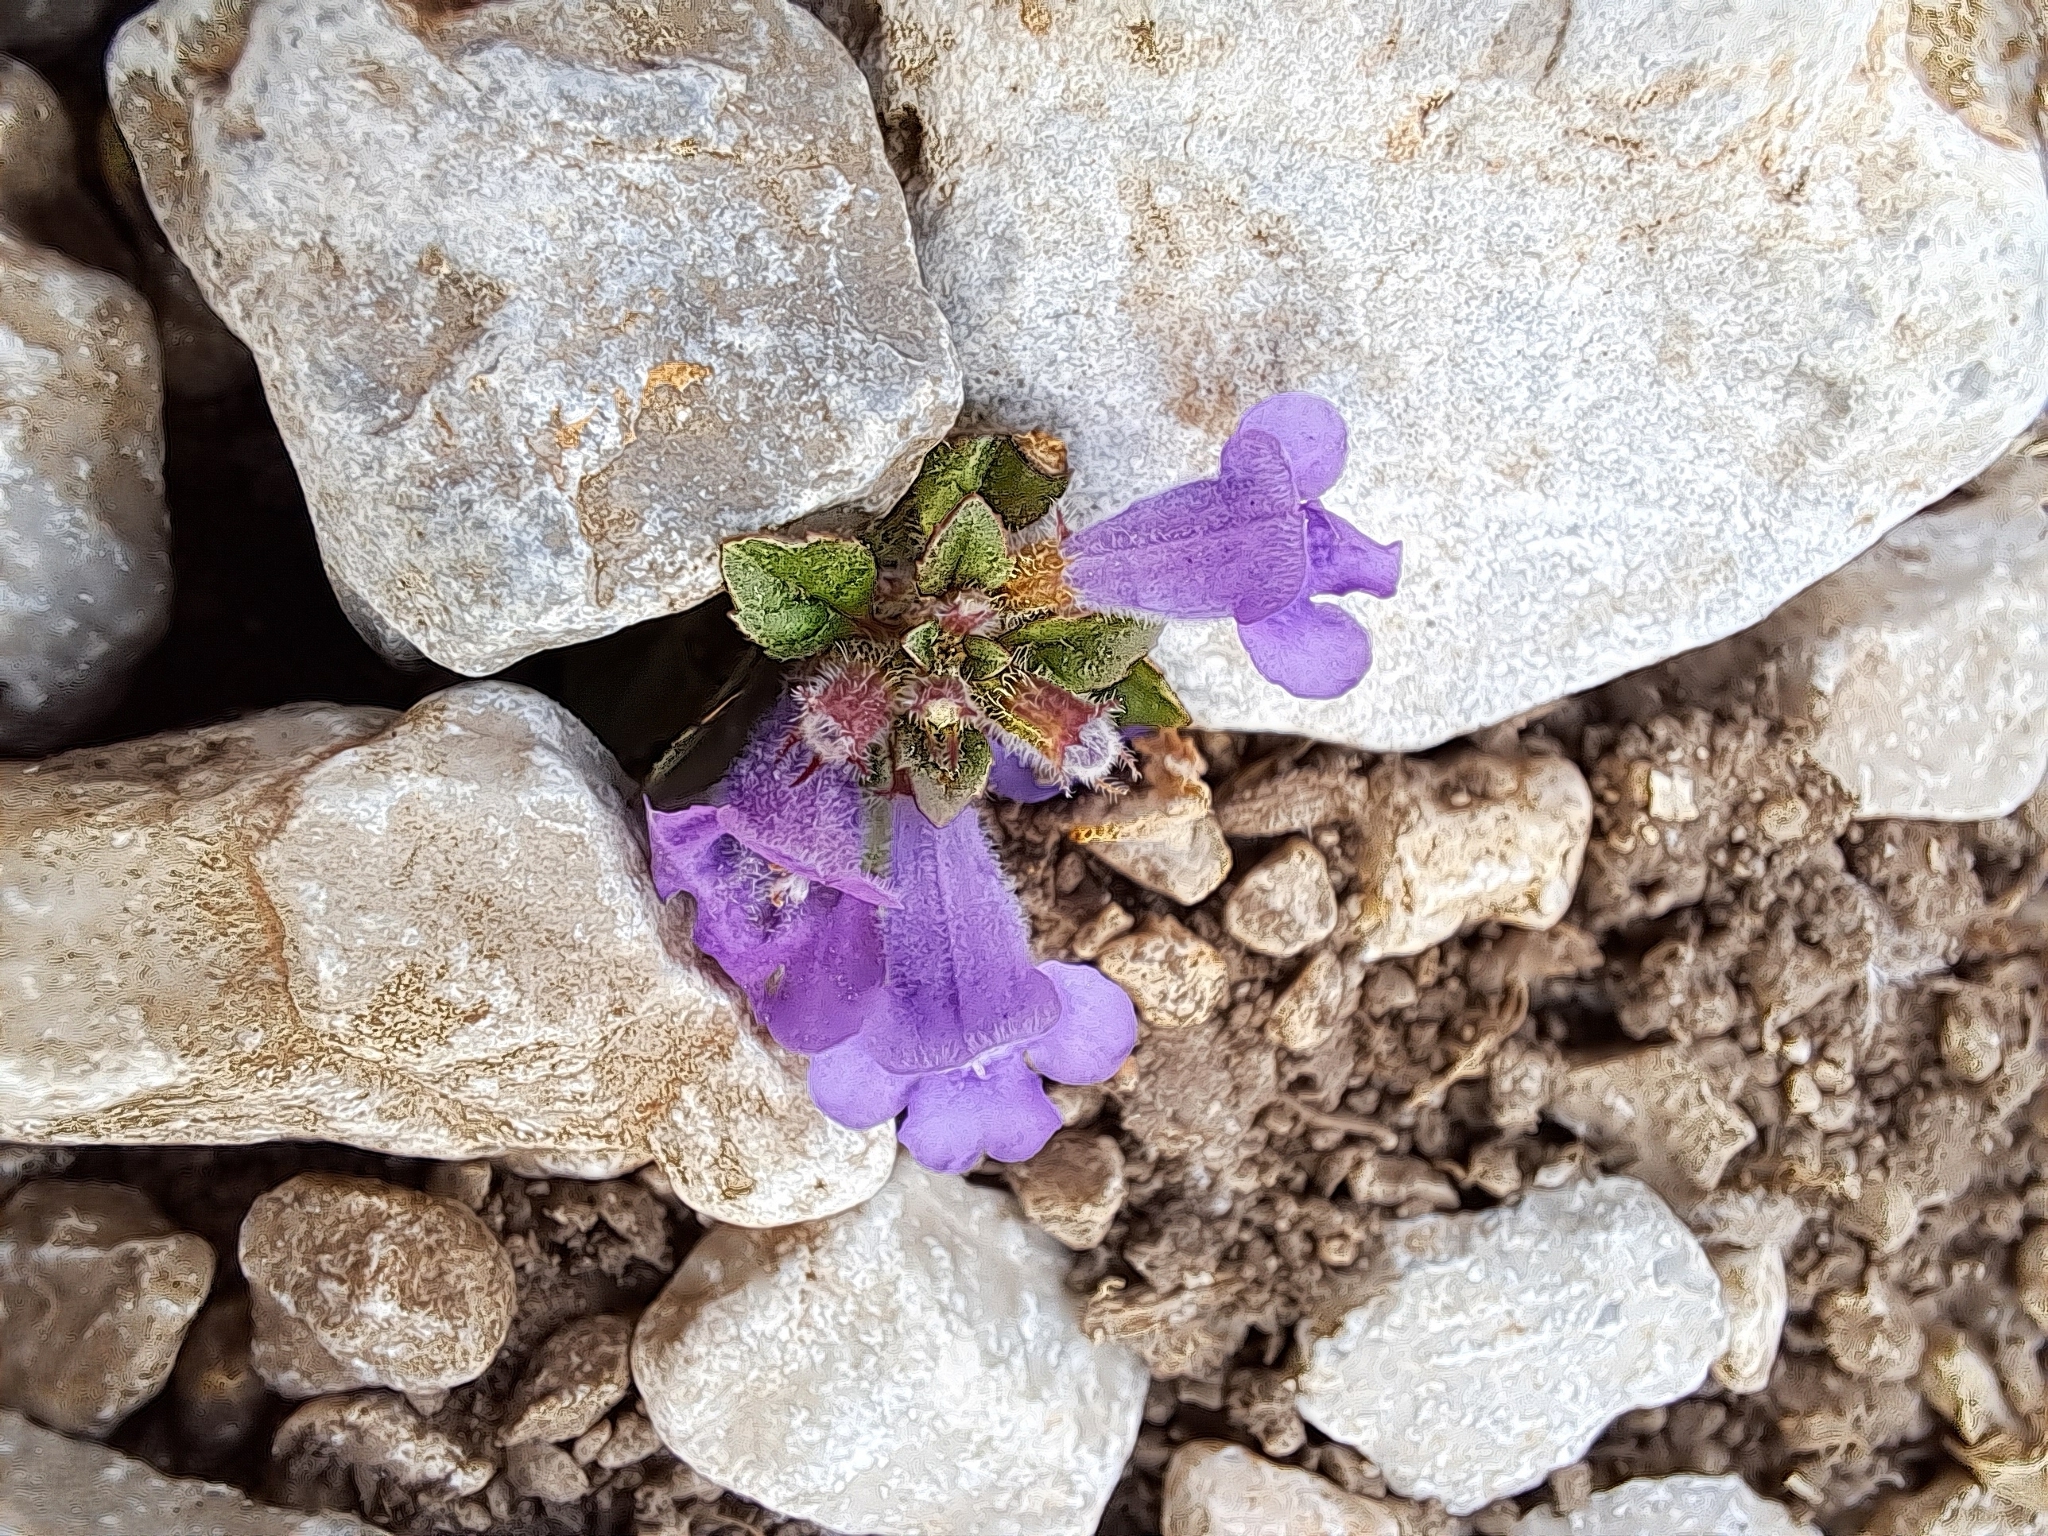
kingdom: Plantae
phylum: Tracheophyta
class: Magnoliopsida
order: Lamiales
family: Lamiaceae
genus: Clinopodium
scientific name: Clinopodium alpinum
